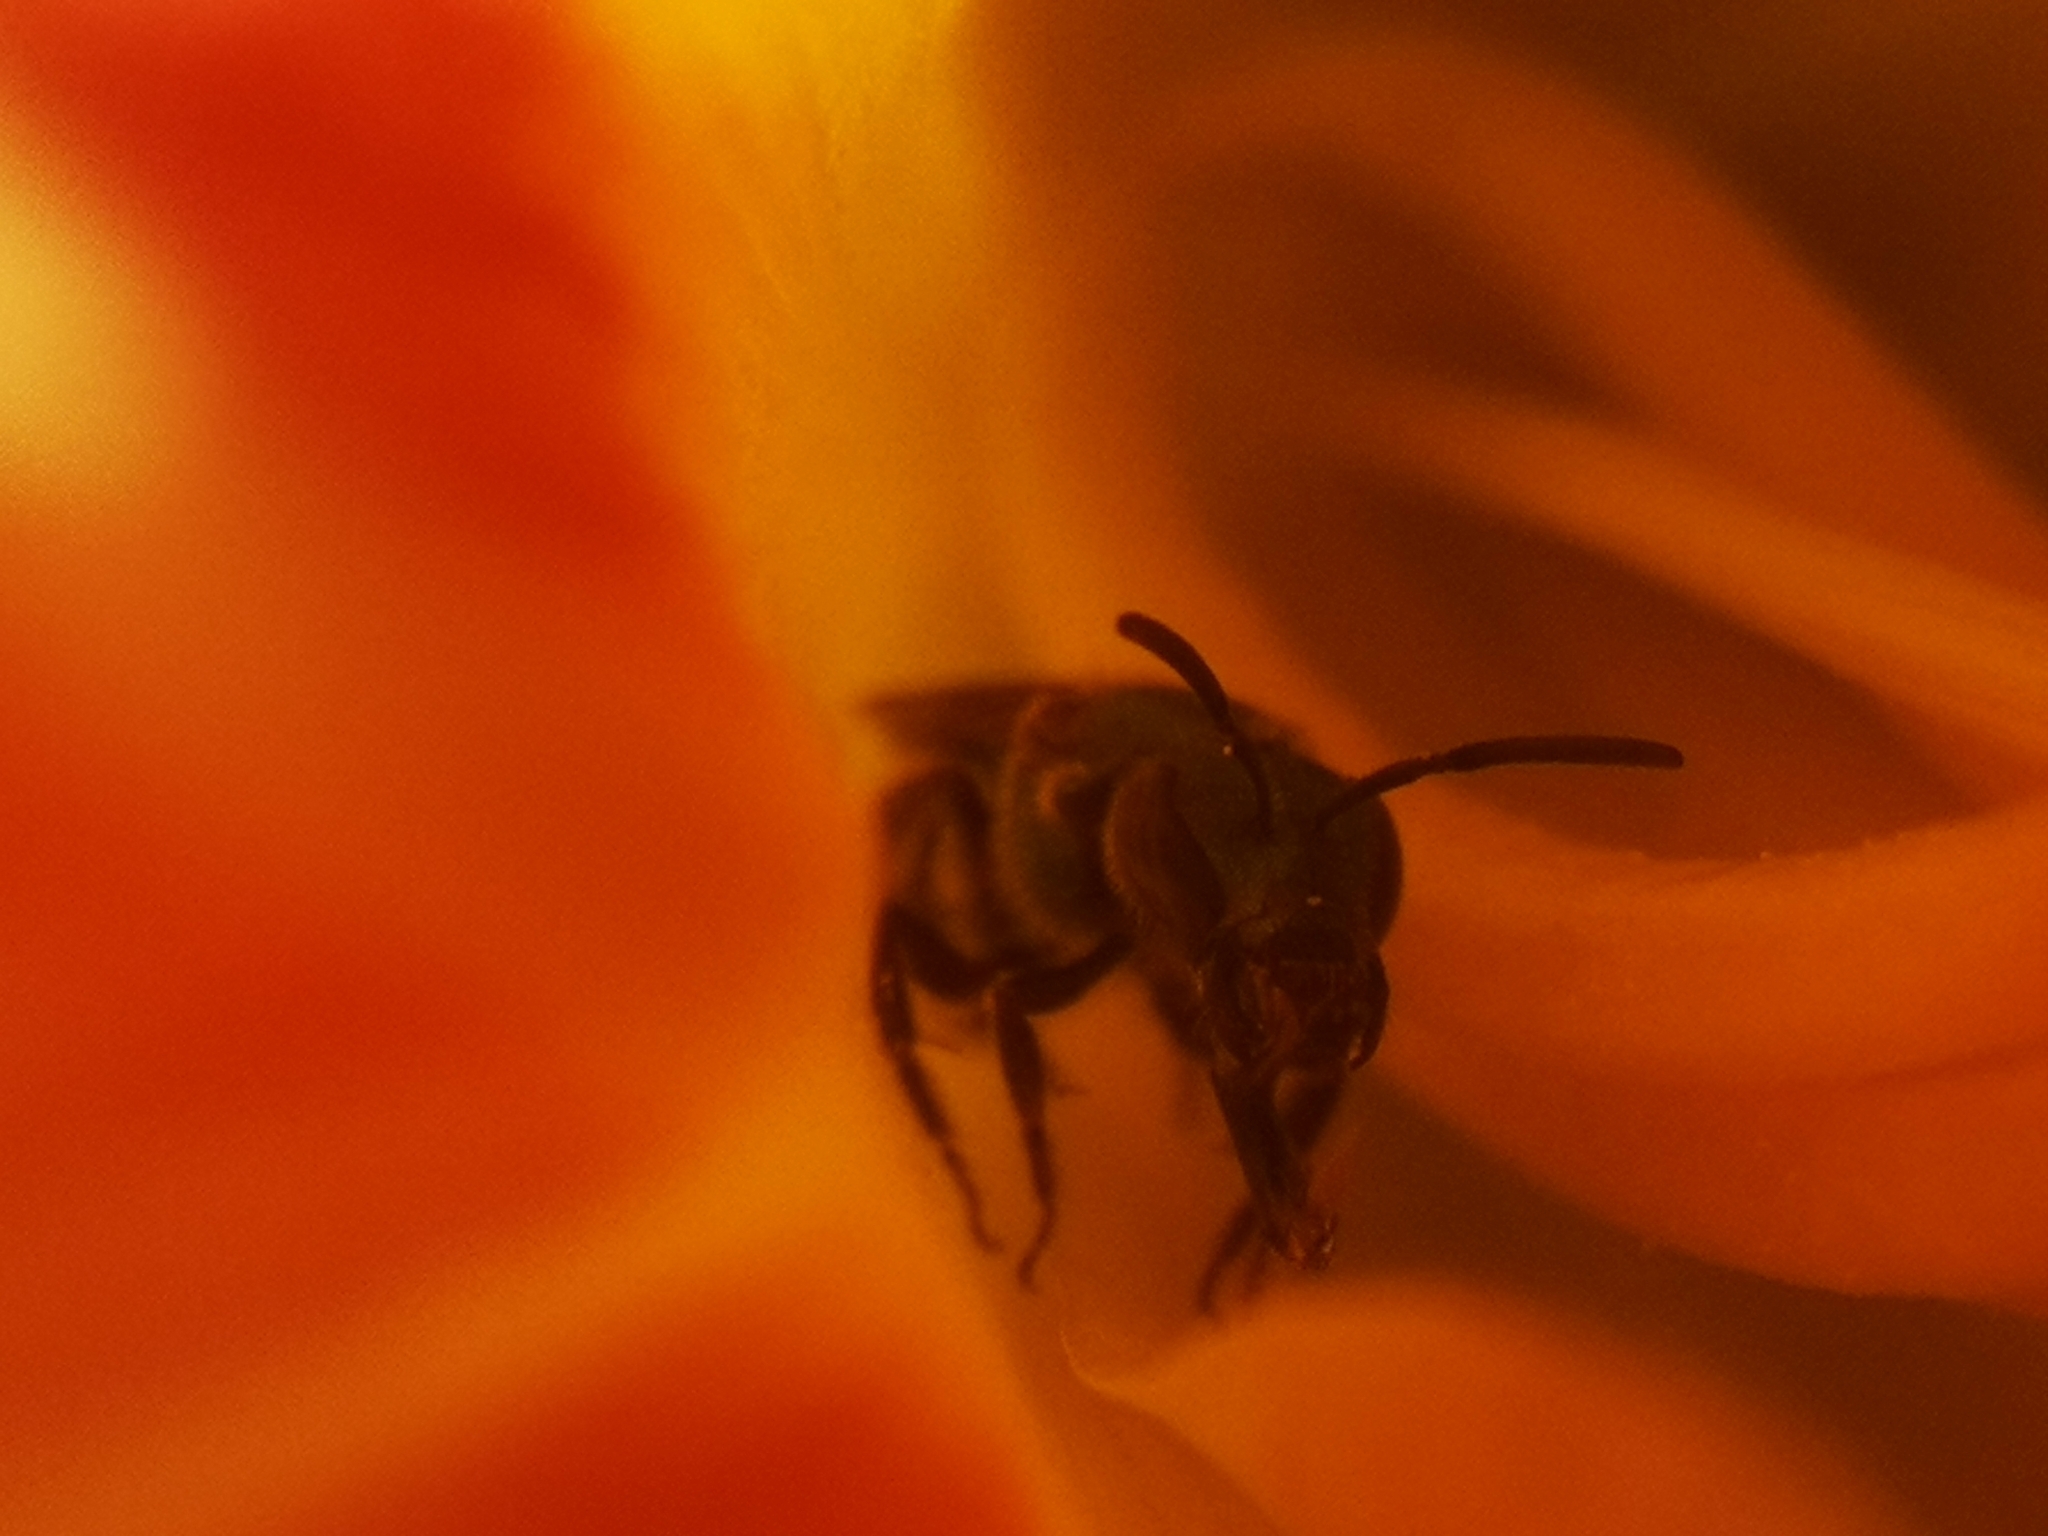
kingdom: Animalia
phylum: Arthropoda
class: Insecta
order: Hymenoptera
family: Halictidae
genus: Dialictus
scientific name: Dialictus
